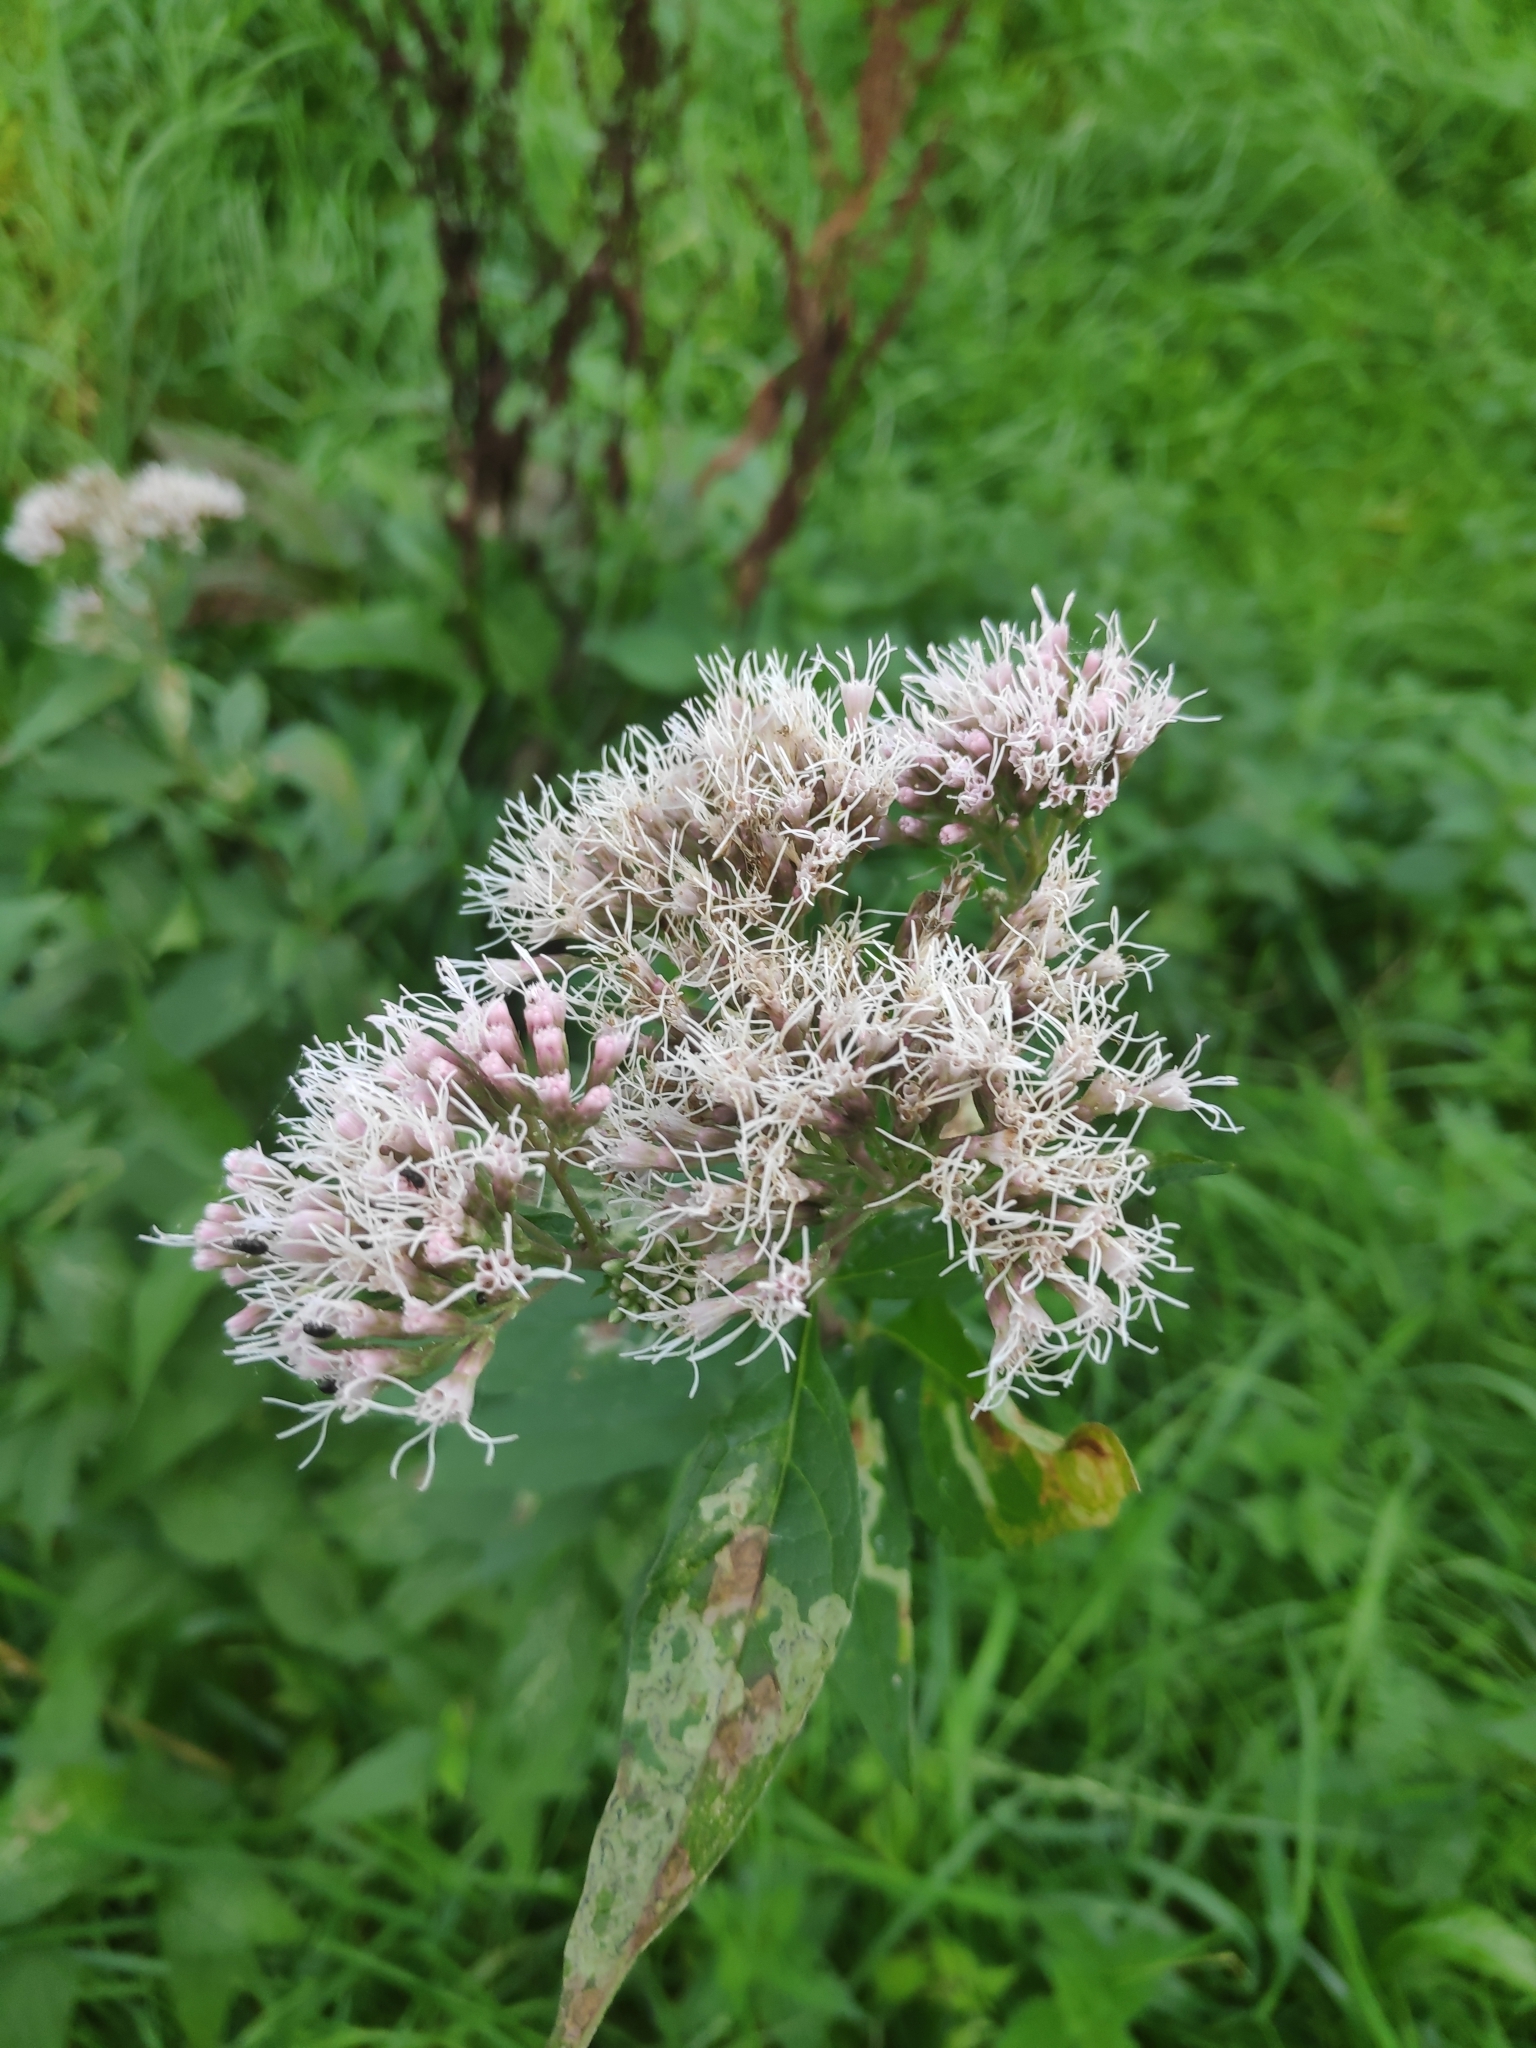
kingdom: Plantae
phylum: Tracheophyta
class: Magnoliopsida
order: Asterales
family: Asteraceae
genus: Eupatorium
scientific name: Eupatorium cannabinum
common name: Hemp-agrimony
